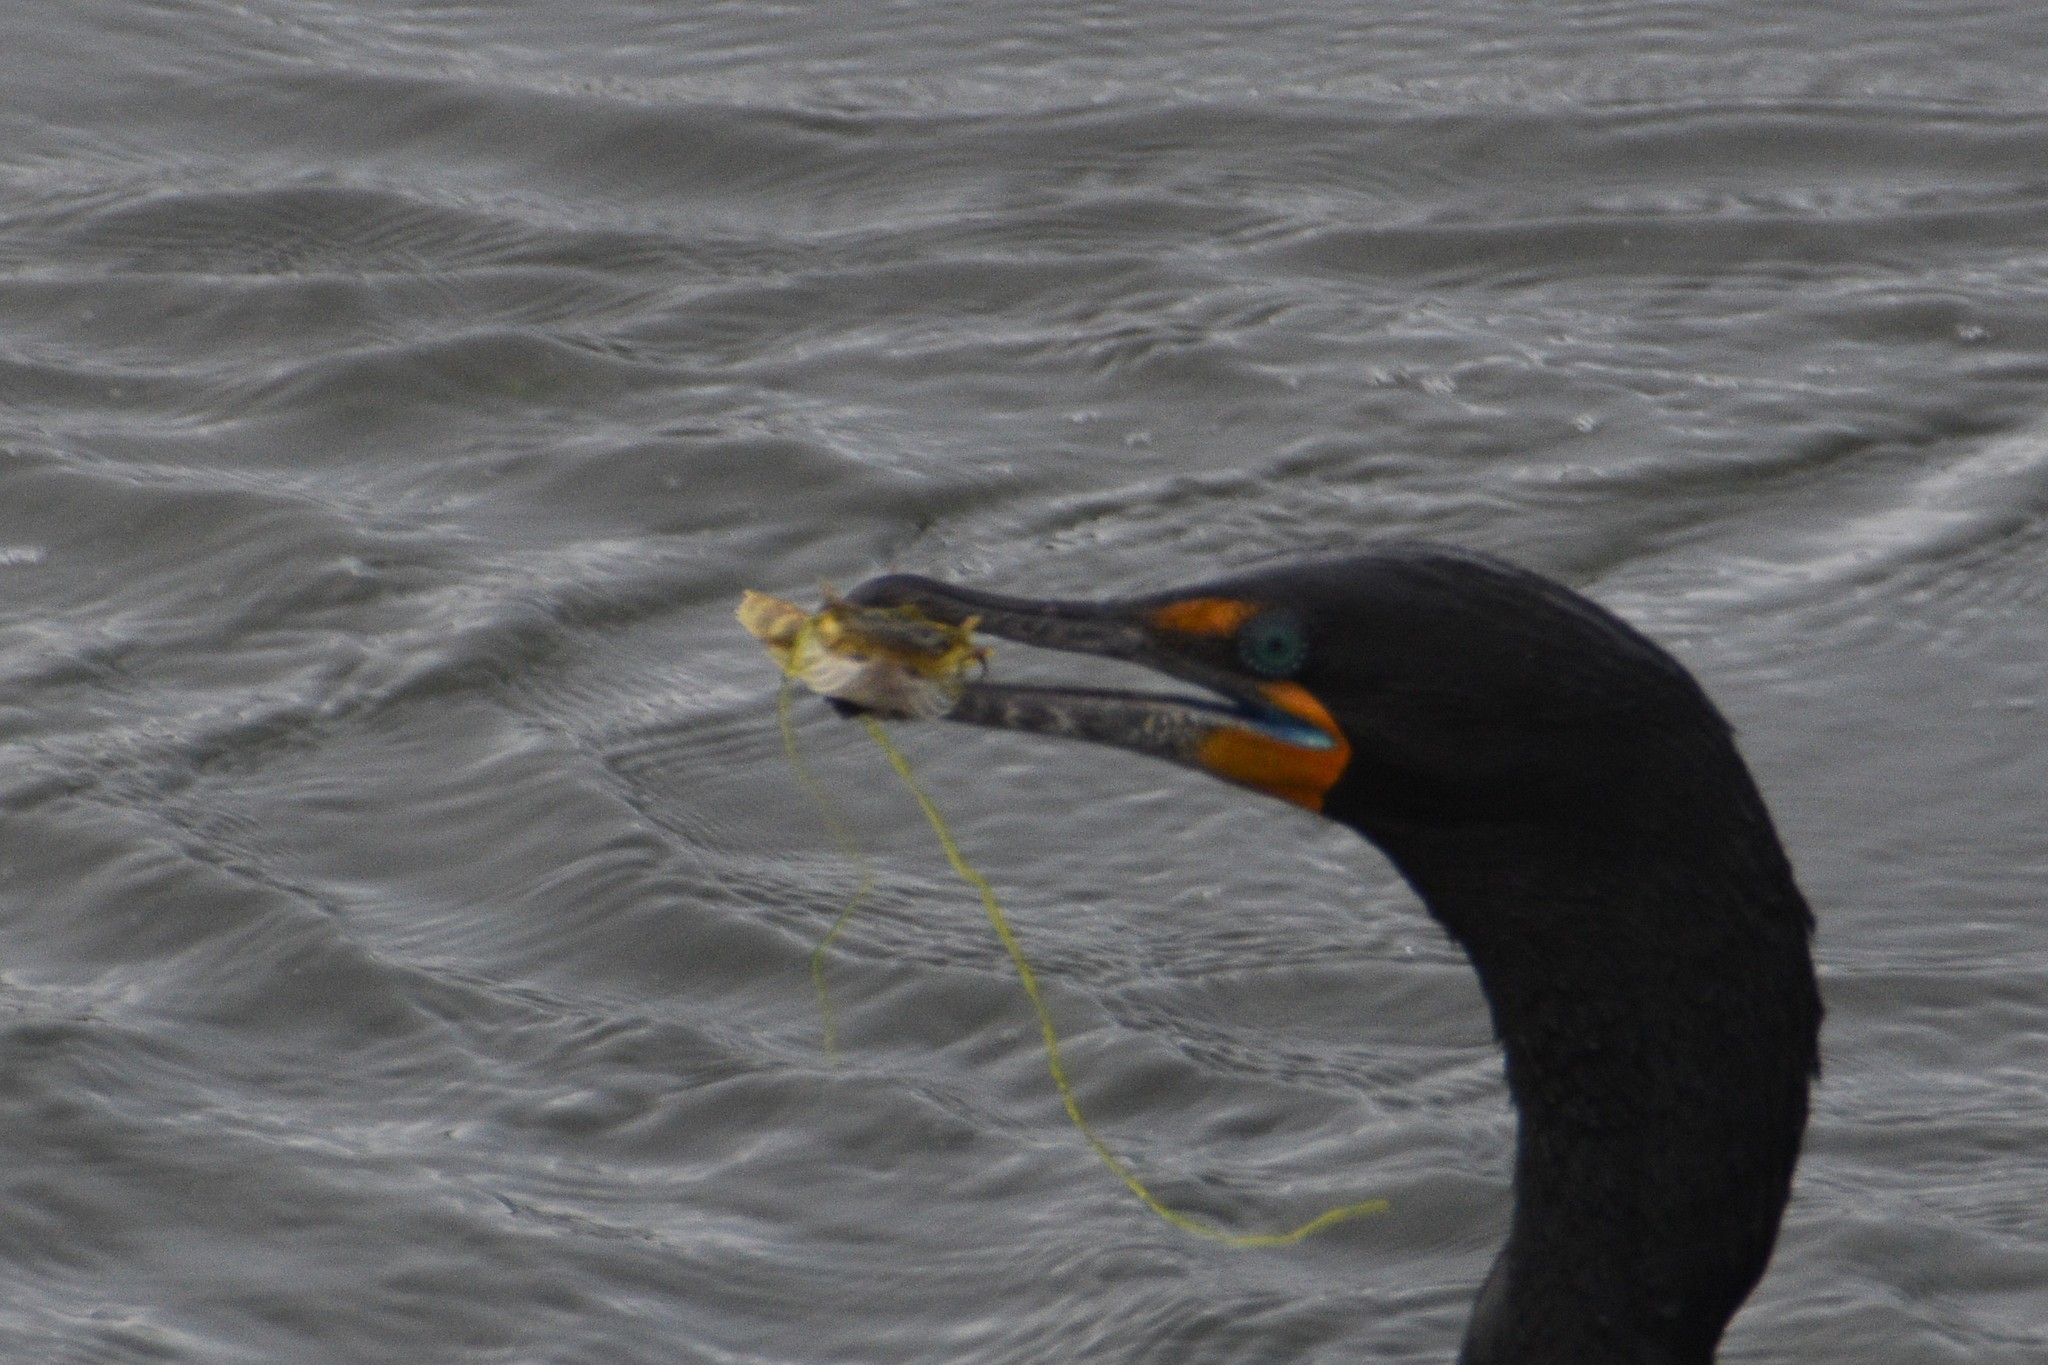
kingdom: Animalia
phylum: Chordata
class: Aves
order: Suliformes
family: Phalacrocoracidae
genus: Phalacrocorax
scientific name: Phalacrocorax auritus
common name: Double-crested cormorant
